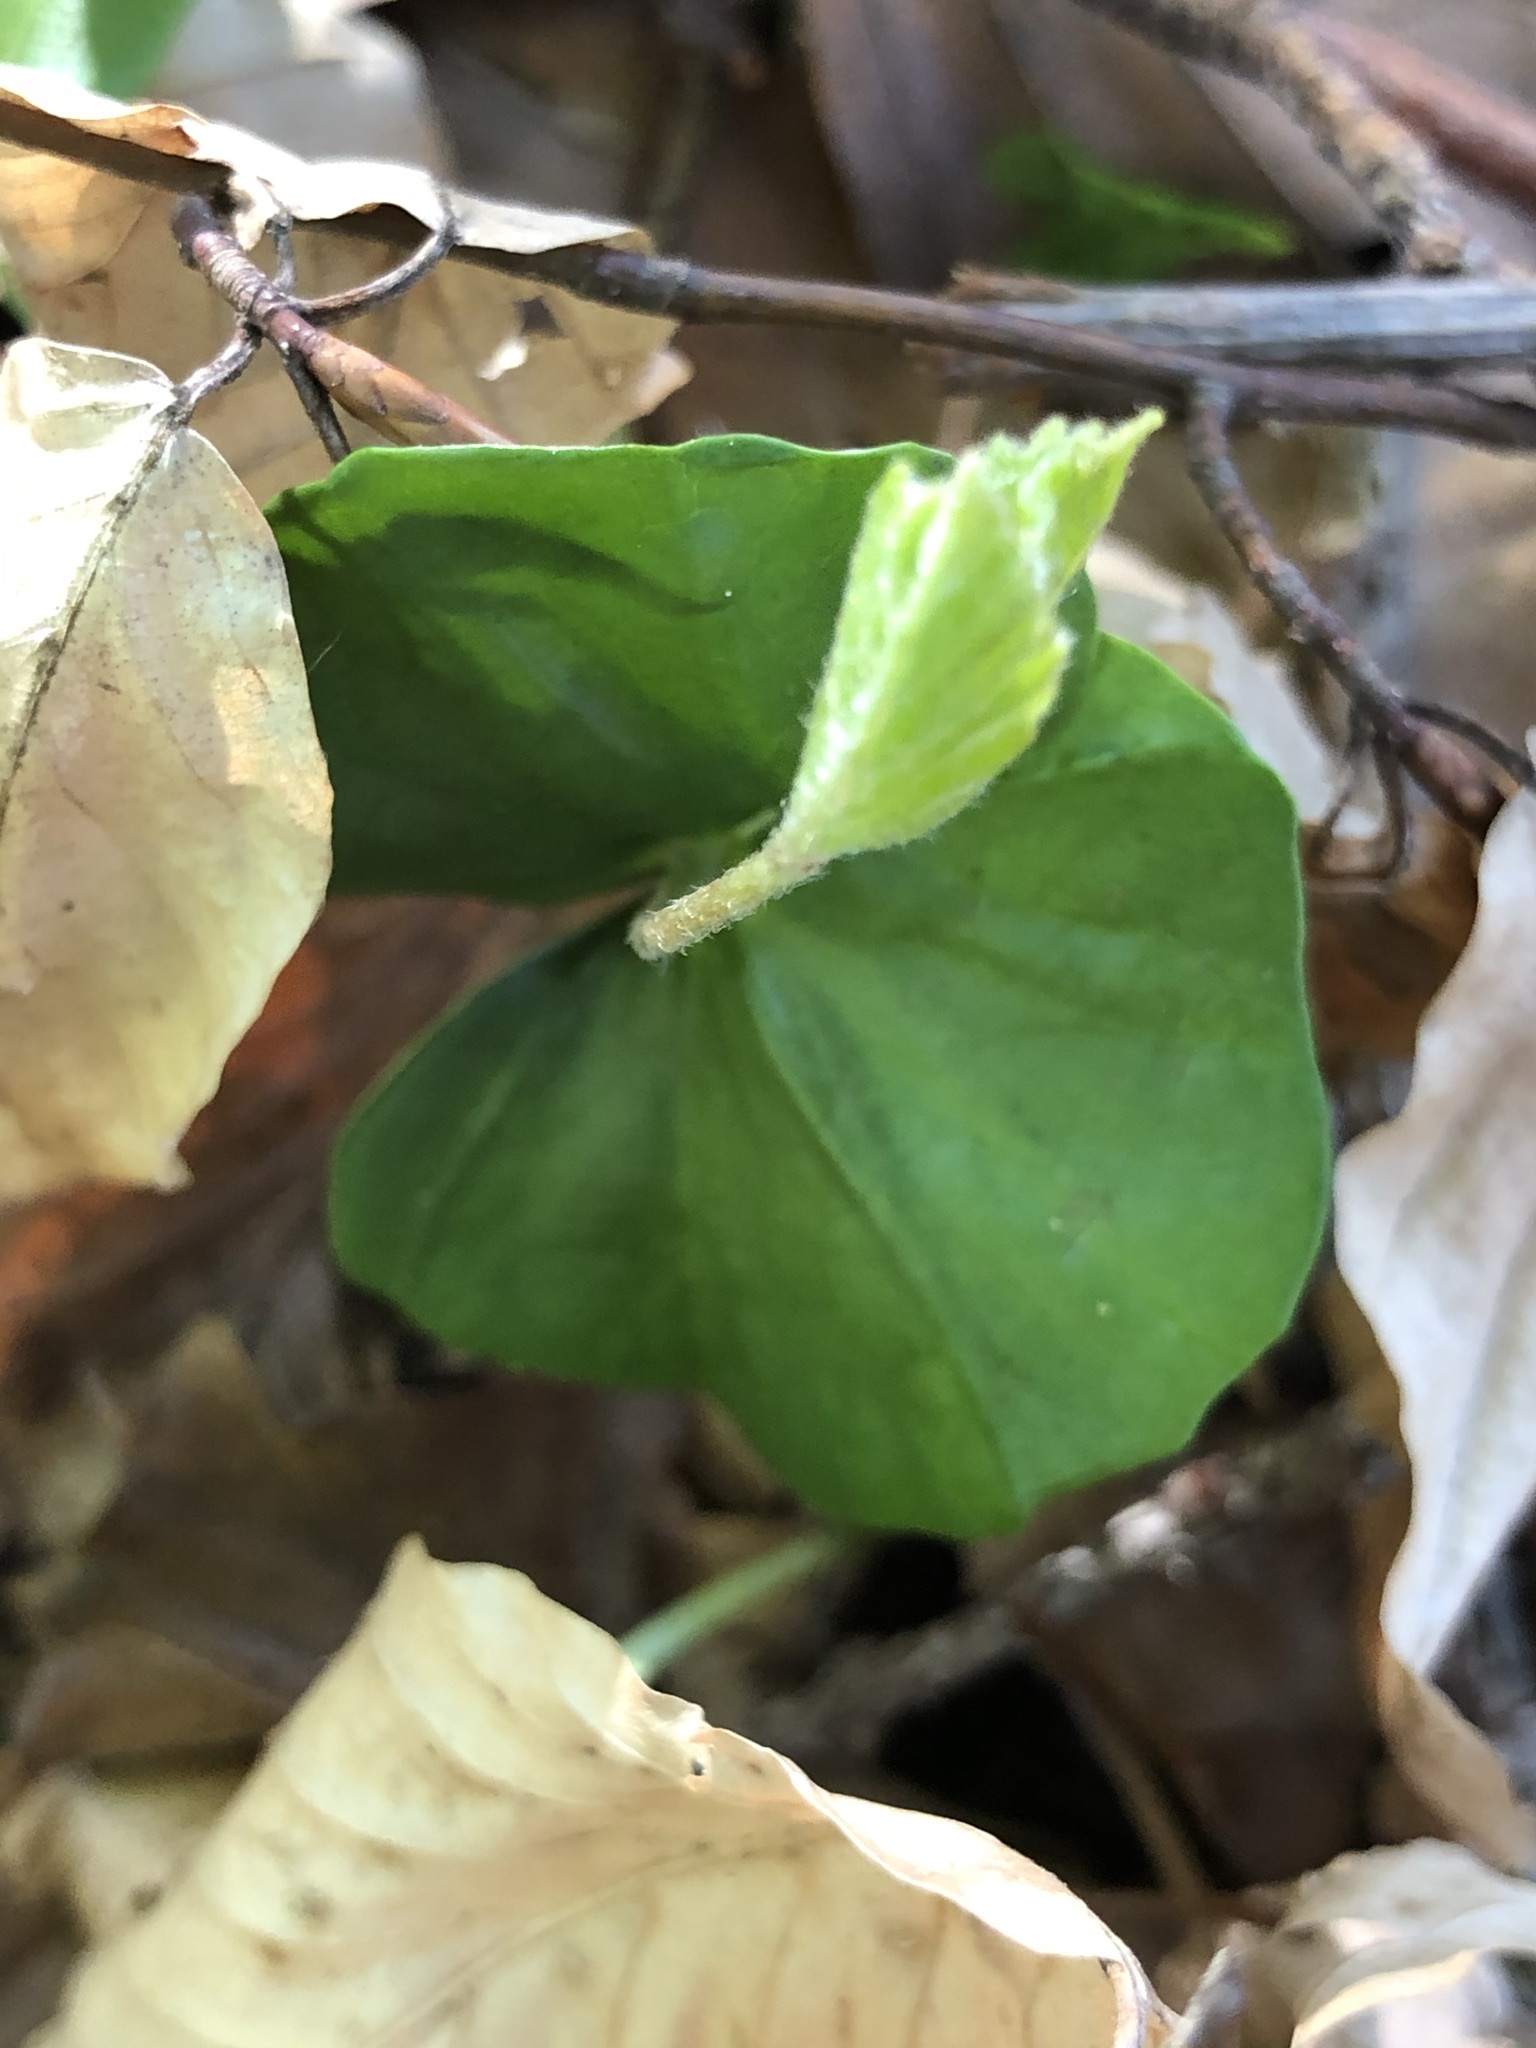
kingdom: Plantae
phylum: Tracheophyta
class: Magnoliopsida
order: Fagales
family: Fagaceae
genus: Fagus
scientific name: Fagus sylvatica
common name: Beech
